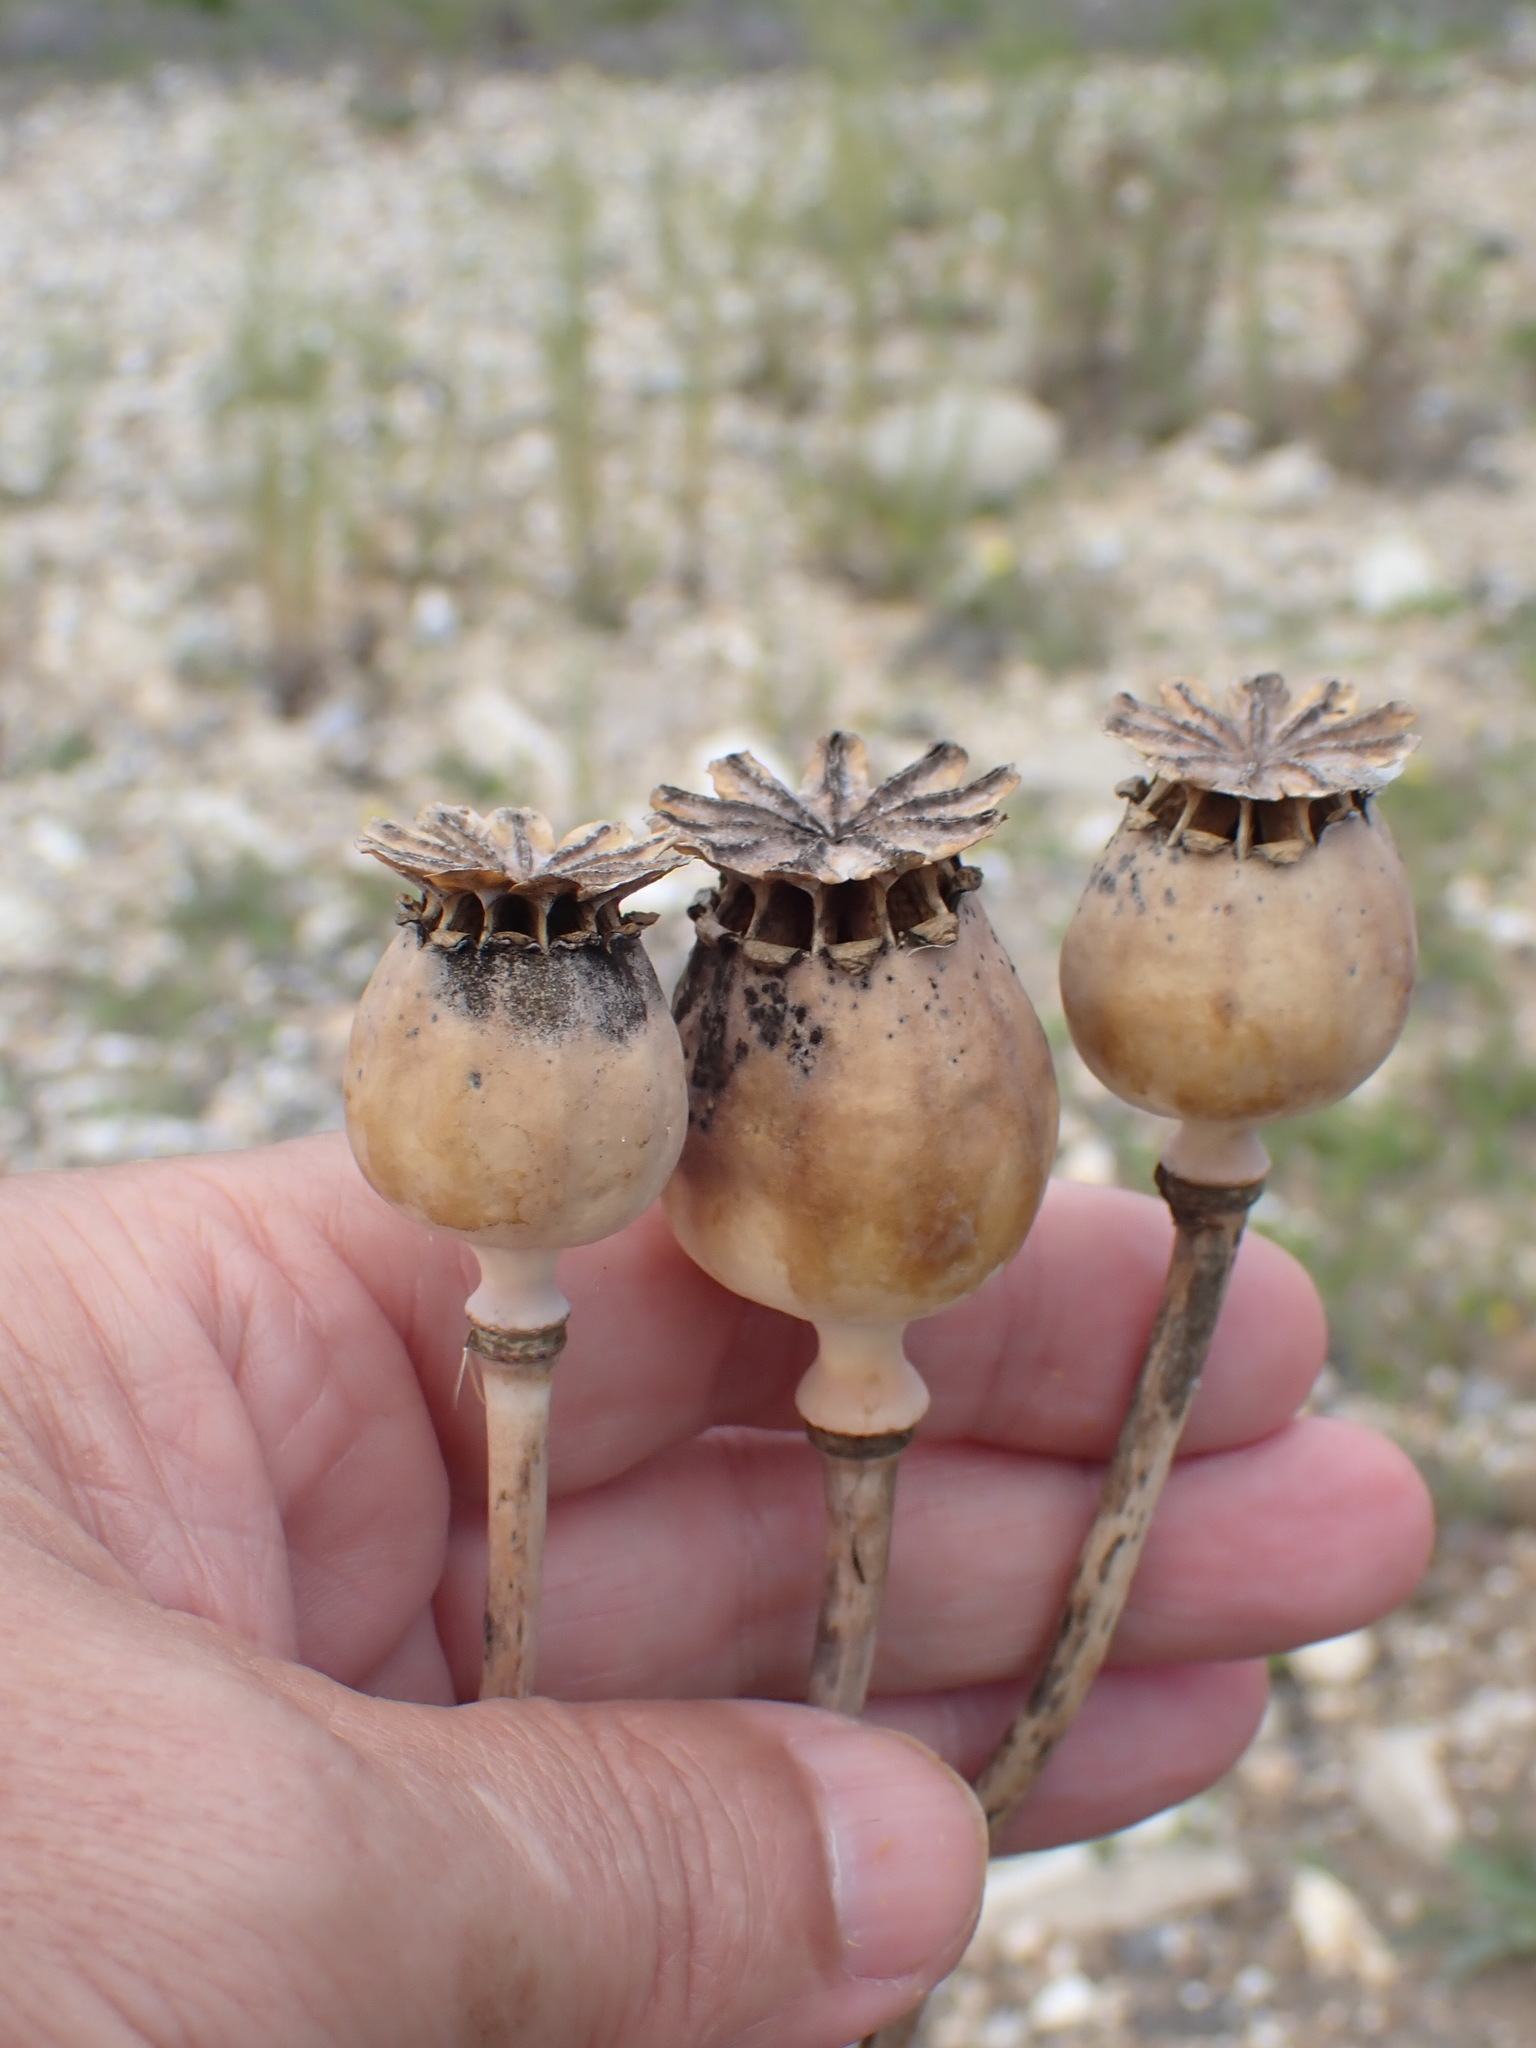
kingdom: Plantae
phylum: Tracheophyta
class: Magnoliopsida
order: Ranunculales
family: Papaveraceae
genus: Papaver
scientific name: Papaver somniferum
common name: Opium poppy
